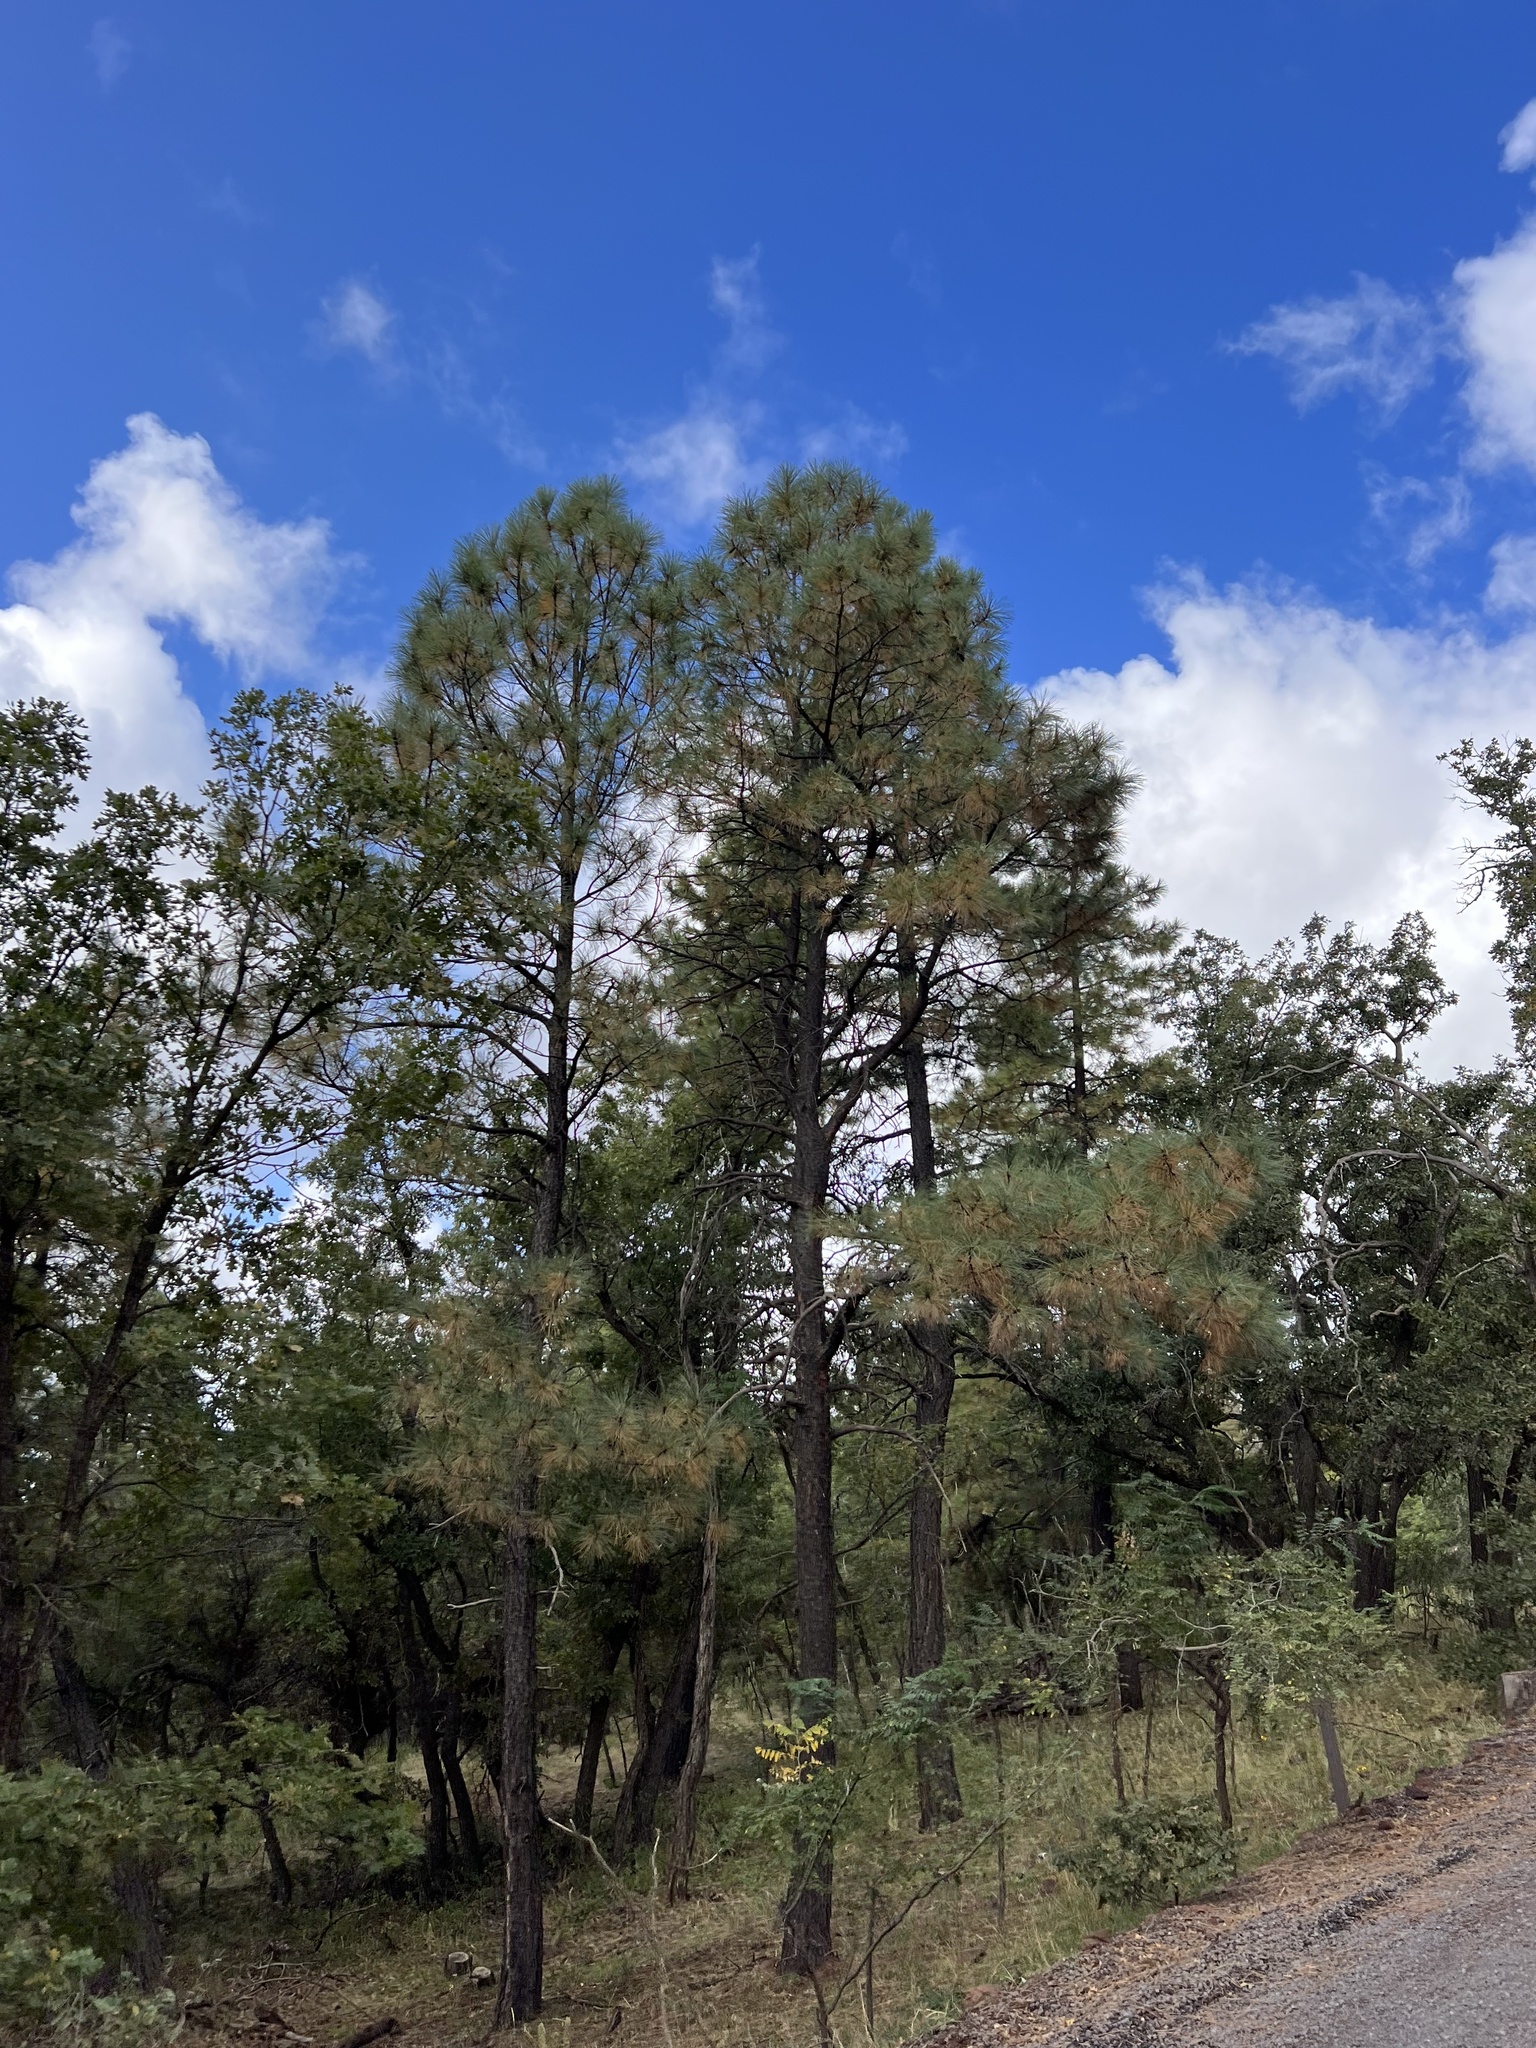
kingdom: Plantae
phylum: Tracheophyta
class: Pinopsida
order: Pinales
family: Pinaceae
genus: Pinus
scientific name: Pinus ponderosa
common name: Western yellow-pine
